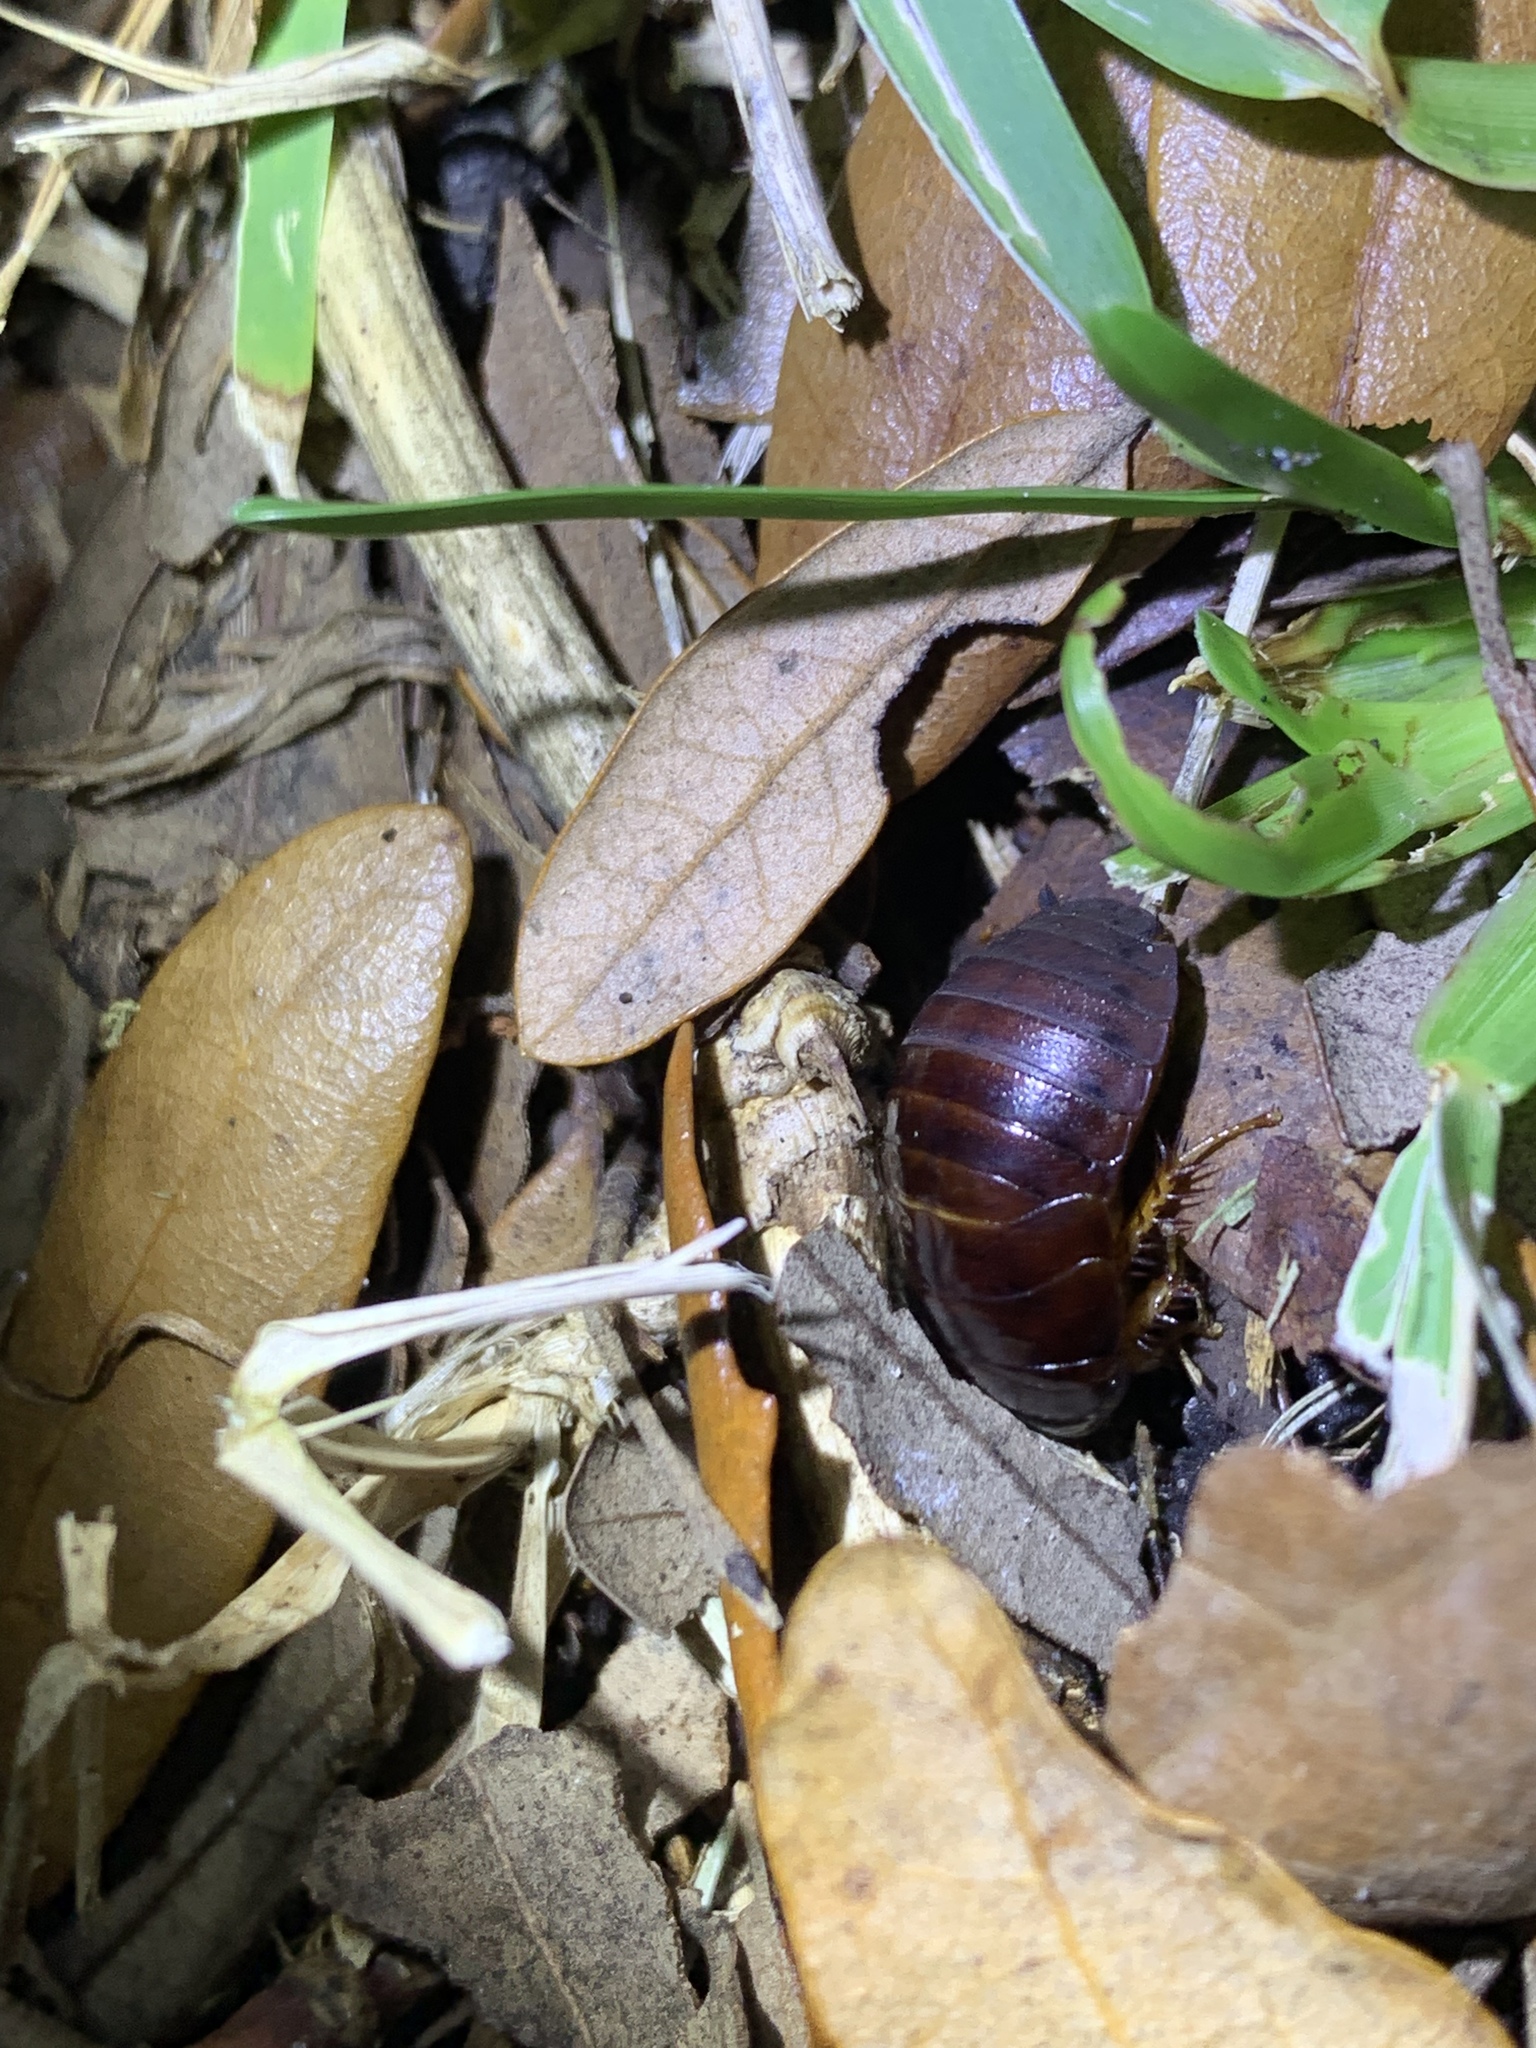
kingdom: Animalia
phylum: Arthropoda
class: Insecta
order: Blattodea
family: Blaberidae
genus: Pycnoscelus
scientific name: Pycnoscelus surinamensis
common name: Surinam cockroach
